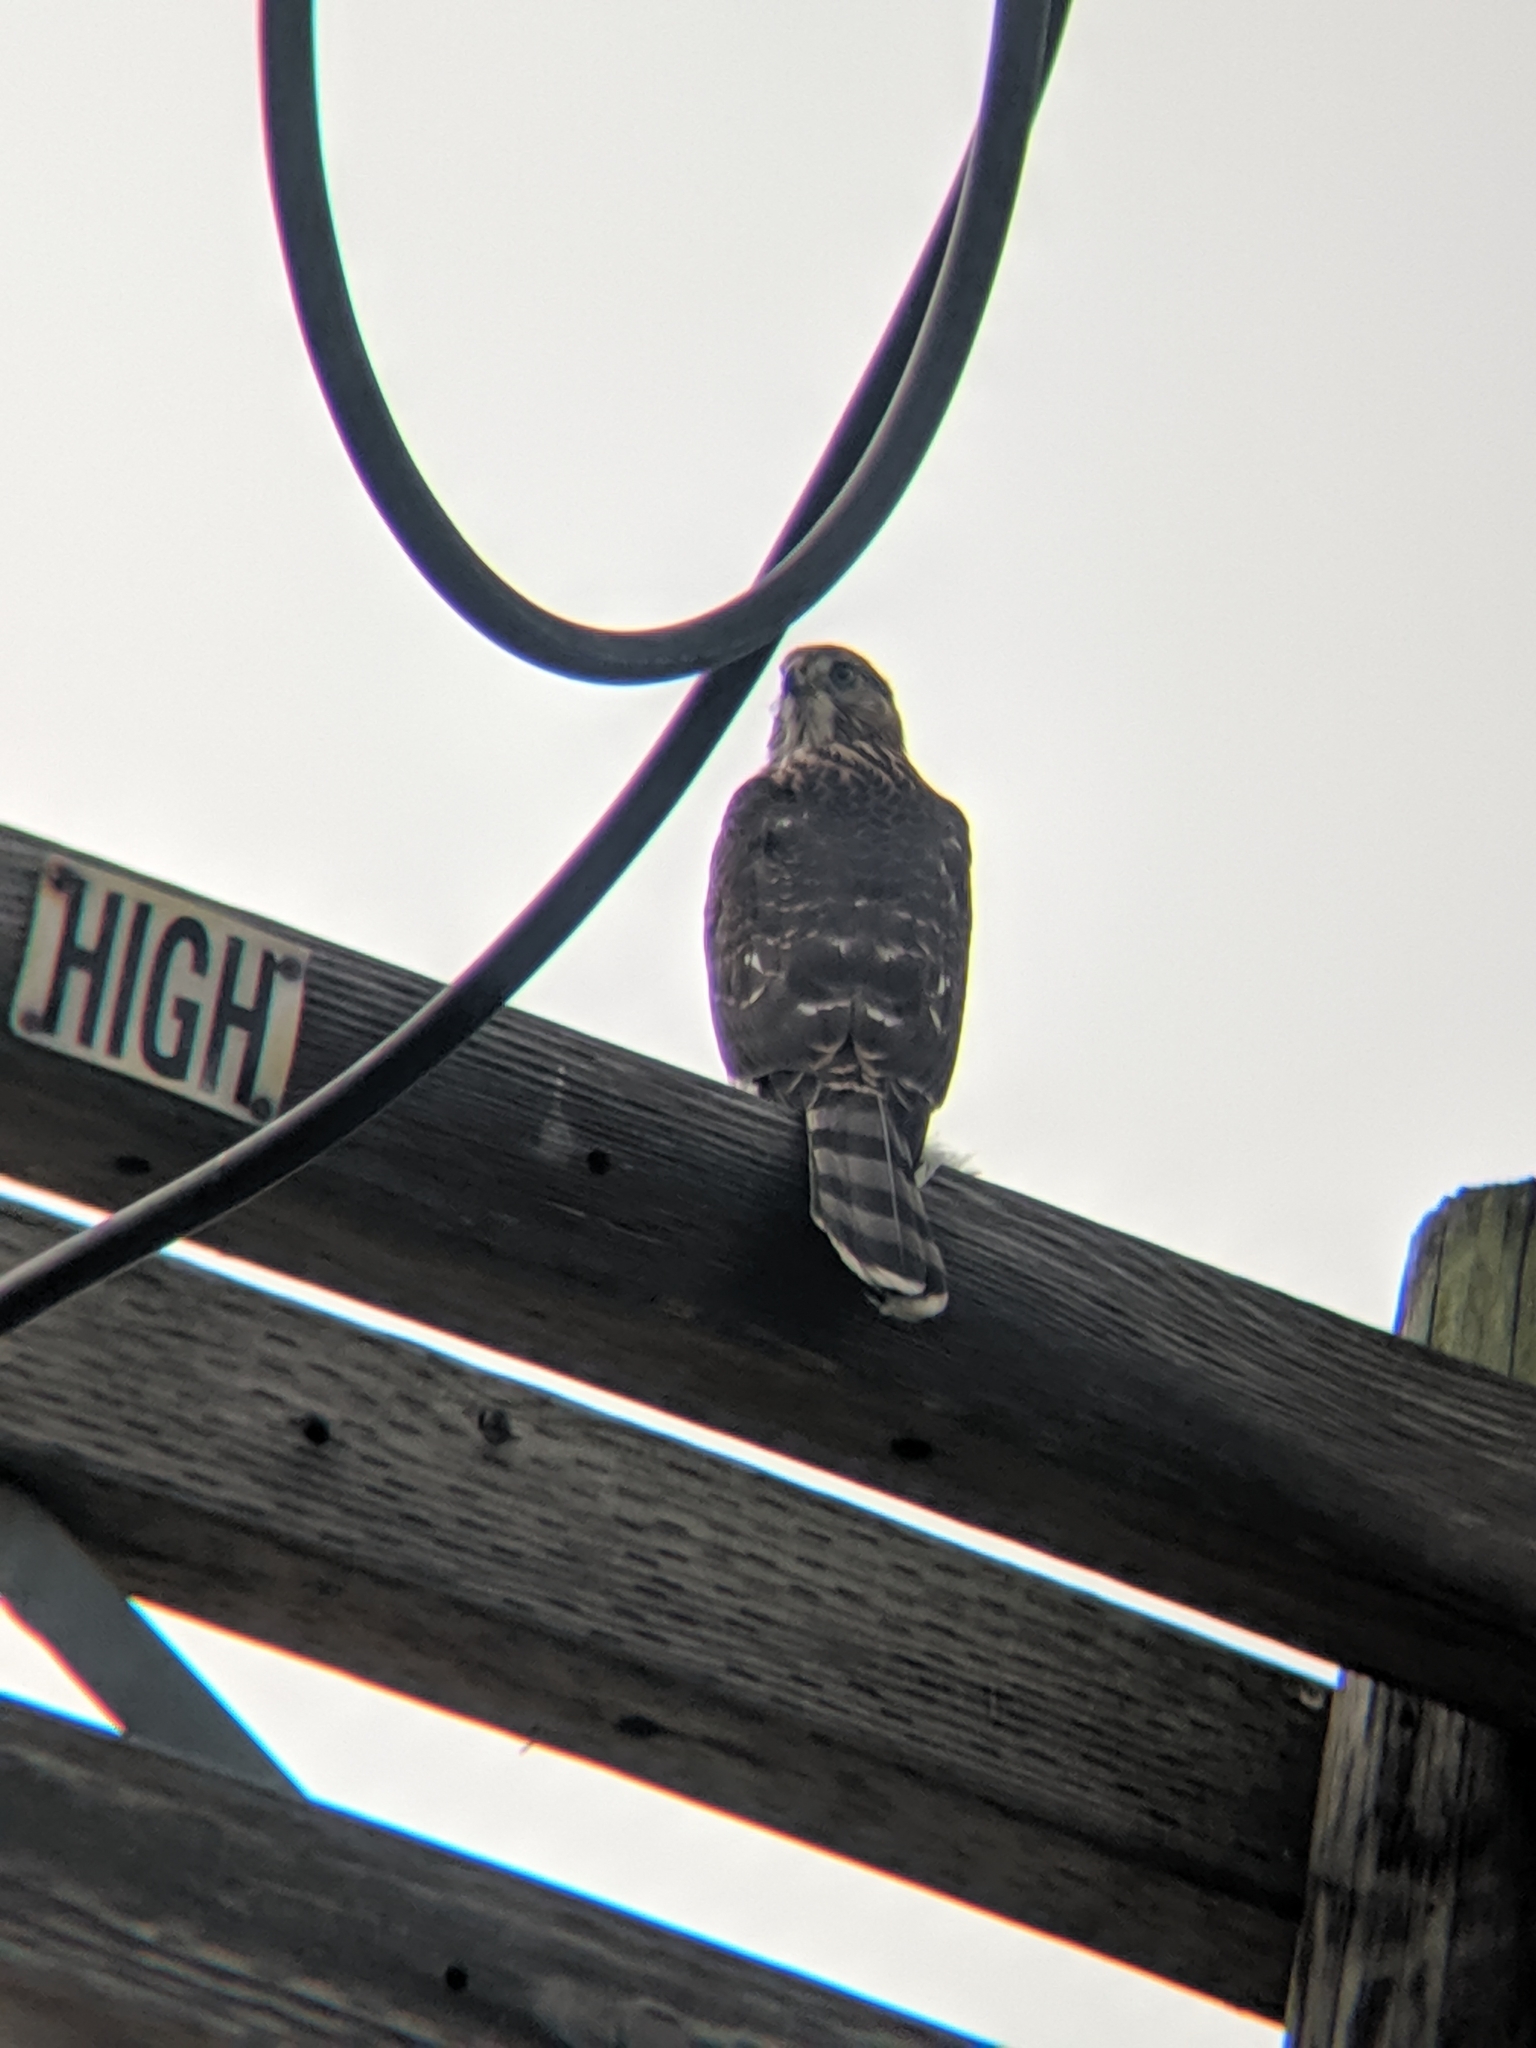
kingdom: Animalia
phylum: Chordata
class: Aves
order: Accipitriformes
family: Accipitridae
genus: Accipiter
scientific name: Accipiter cooperii
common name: Cooper's hawk
